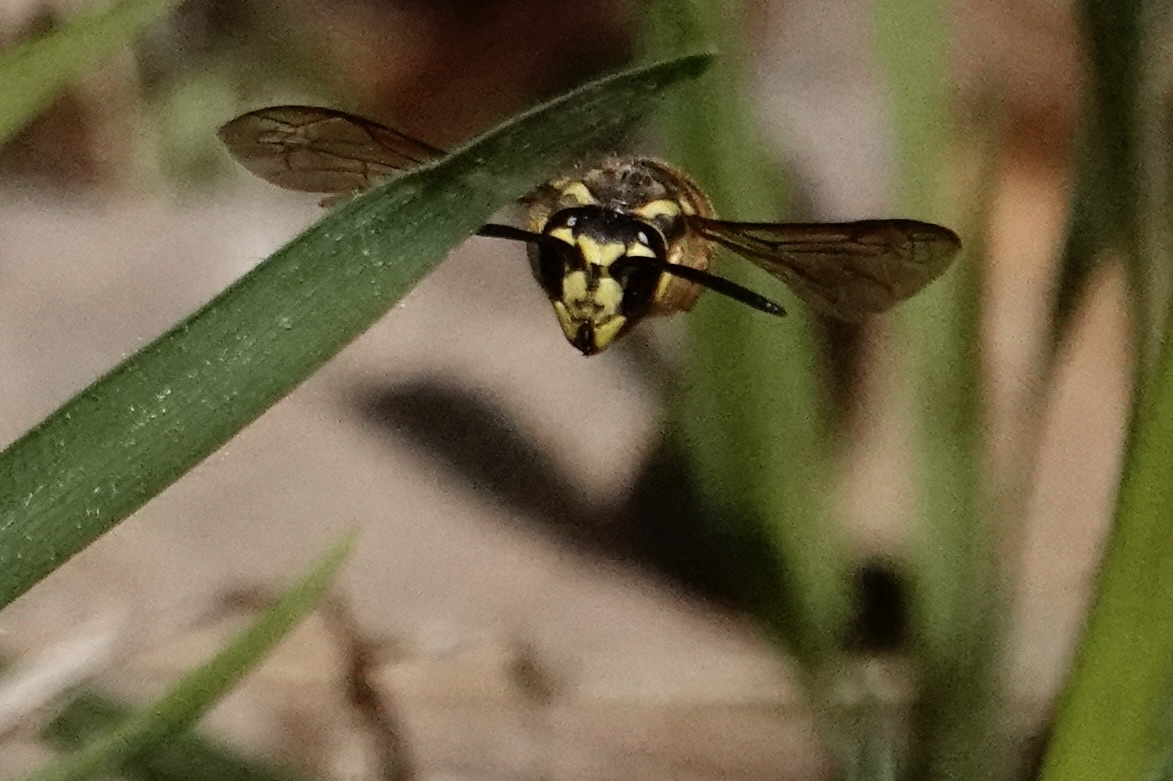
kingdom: Animalia
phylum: Arthropoda
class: Insecta
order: Hymenoptera
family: Vespidae
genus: Vespula
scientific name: Vespula maculifrons
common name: Eastern yellowjacket
